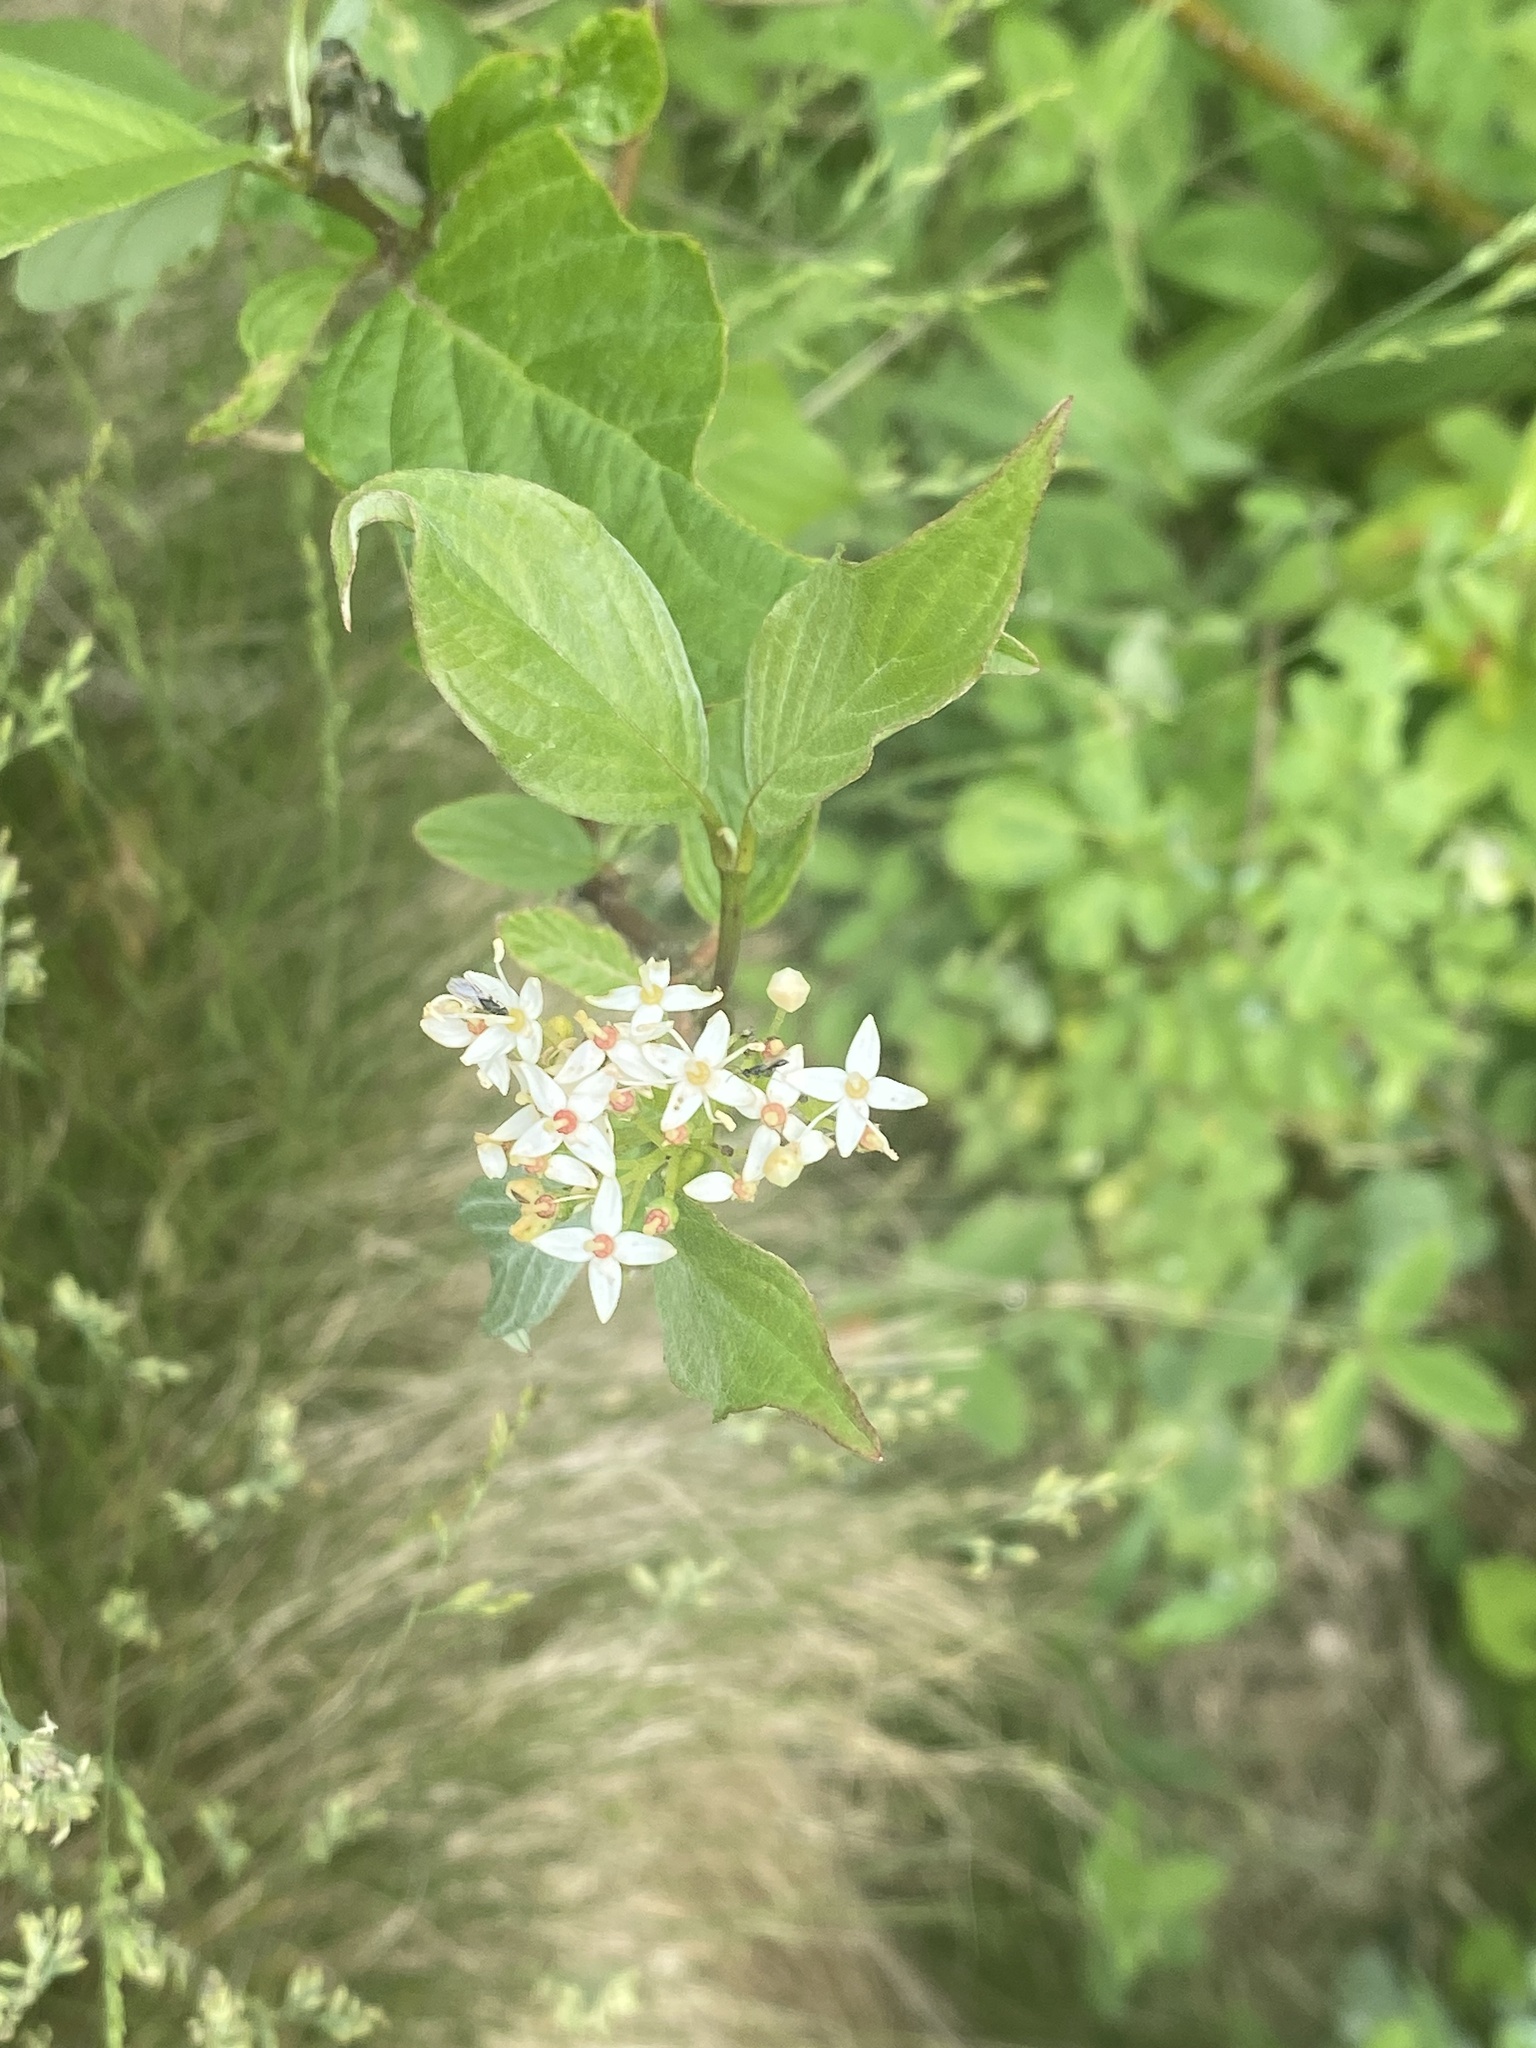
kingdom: Plantae
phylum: Tracheophyta
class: Magnoliopsida
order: Cornales
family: Cornaceae
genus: Cornus
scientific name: Cornus sericea
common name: Red-osier dogwood
